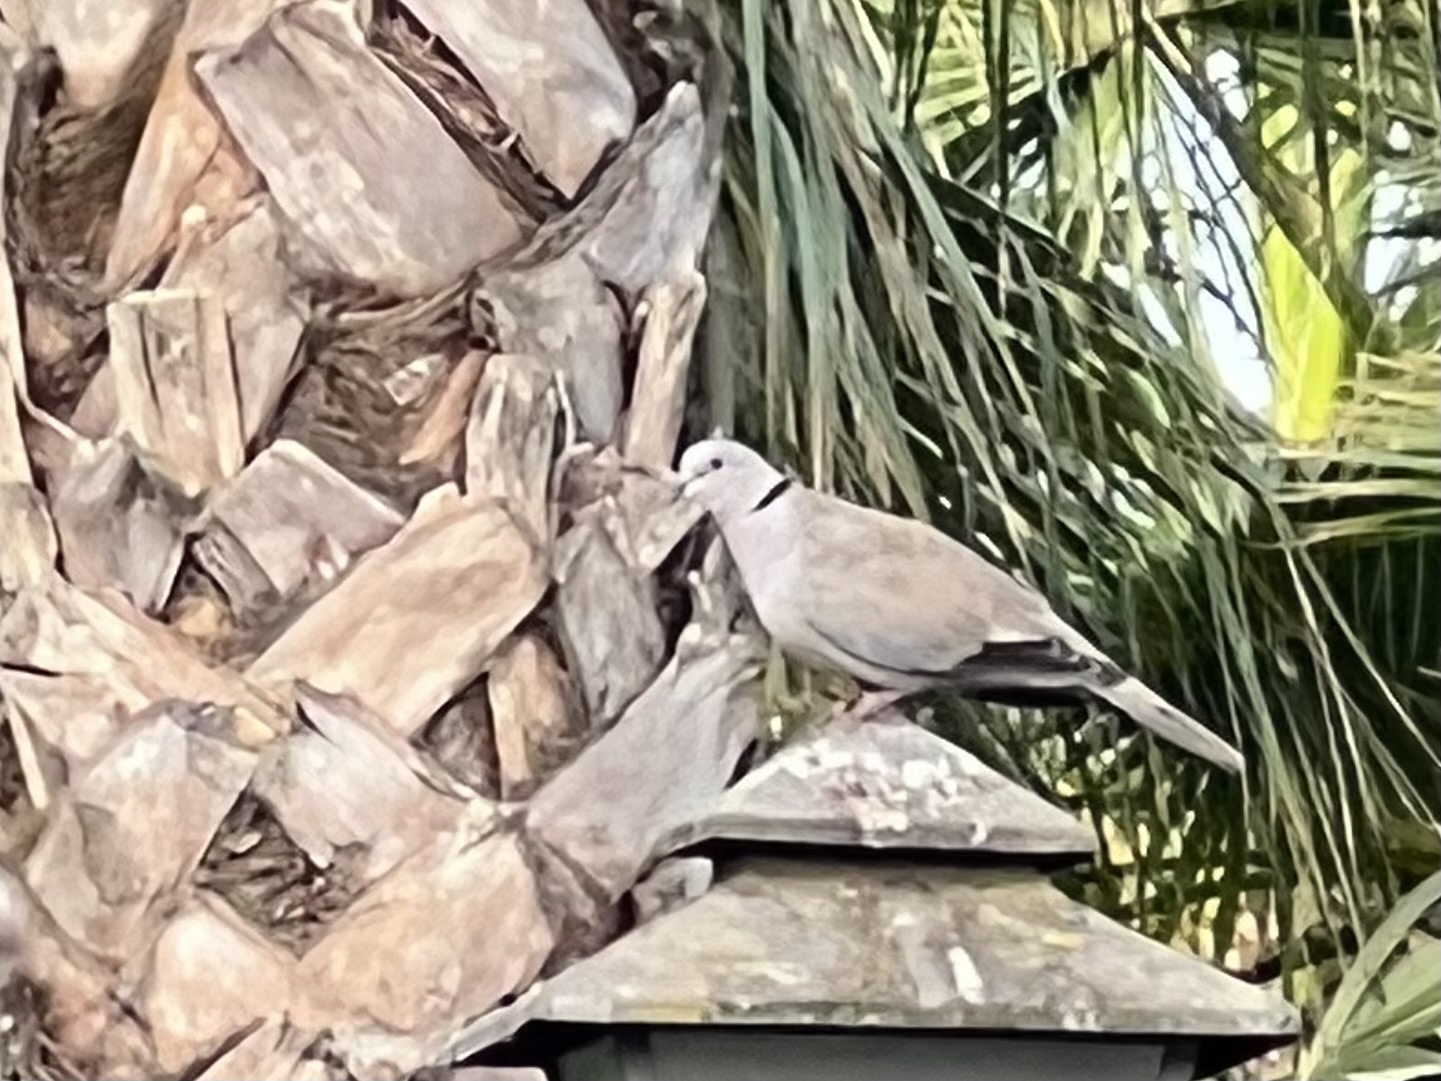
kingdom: Animalia
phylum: Chordata
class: Aves
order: Columbiformes
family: Columbidae
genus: Streptopelia
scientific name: Streptopelia decaocto
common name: Eurasian collared dove
